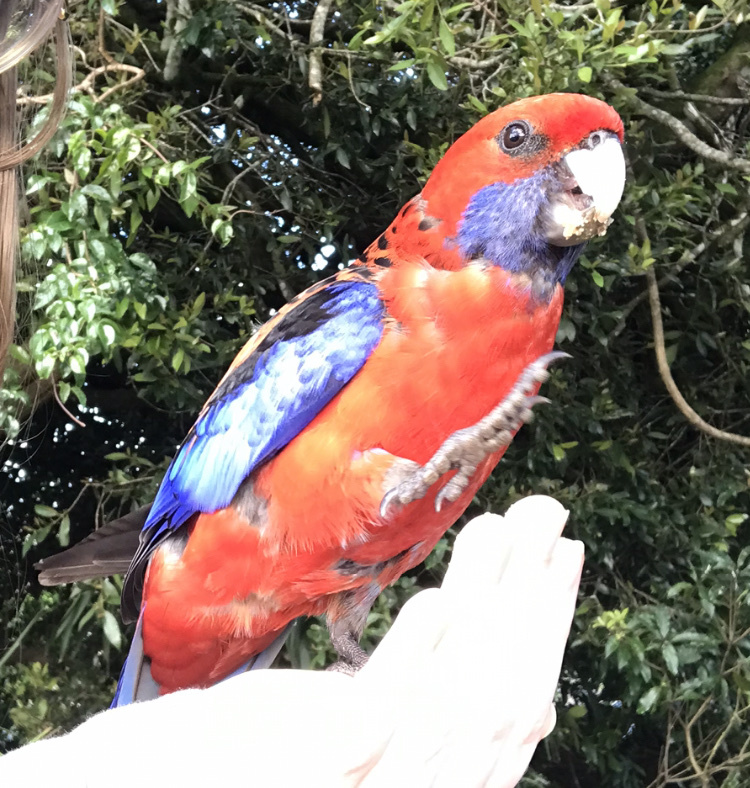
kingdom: Animalia
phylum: Chordata
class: Aves
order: Psittaciformes
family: Psittacidae
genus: Platycercus
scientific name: Platycercus elegans
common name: Crimson rosella
